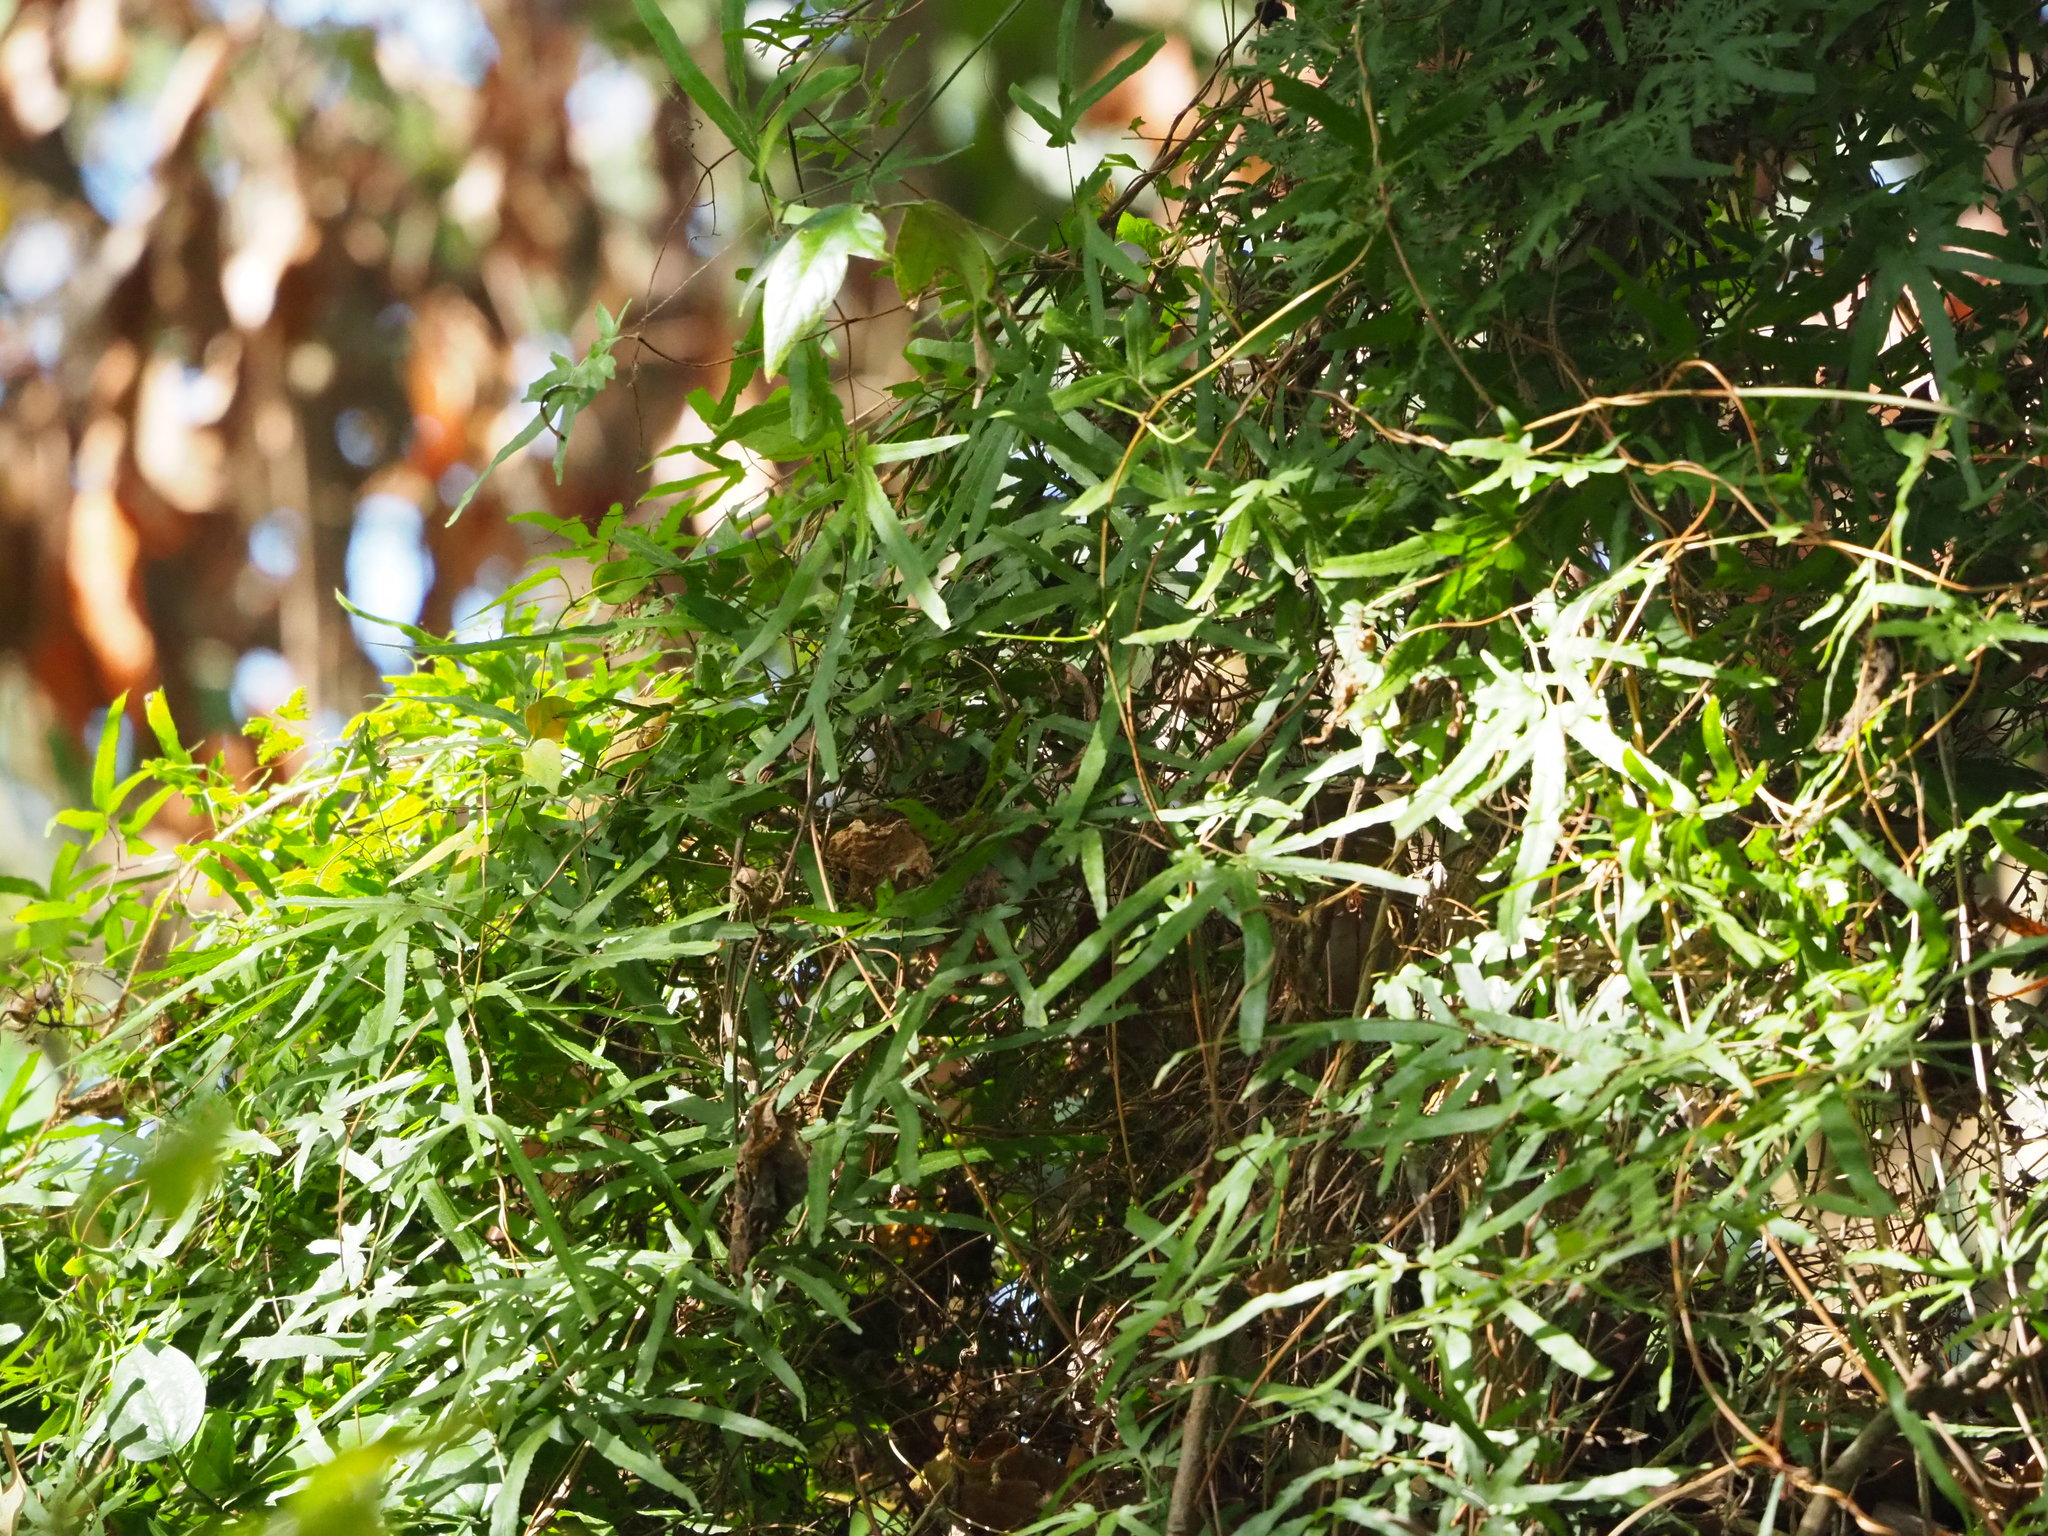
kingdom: Plantae
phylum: Tracheophyta
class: Polypodiopsida
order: Schizaeales
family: Lygodiaceae
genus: Lygodium
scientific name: Lygodium japonicum
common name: Japanese climbing fern
